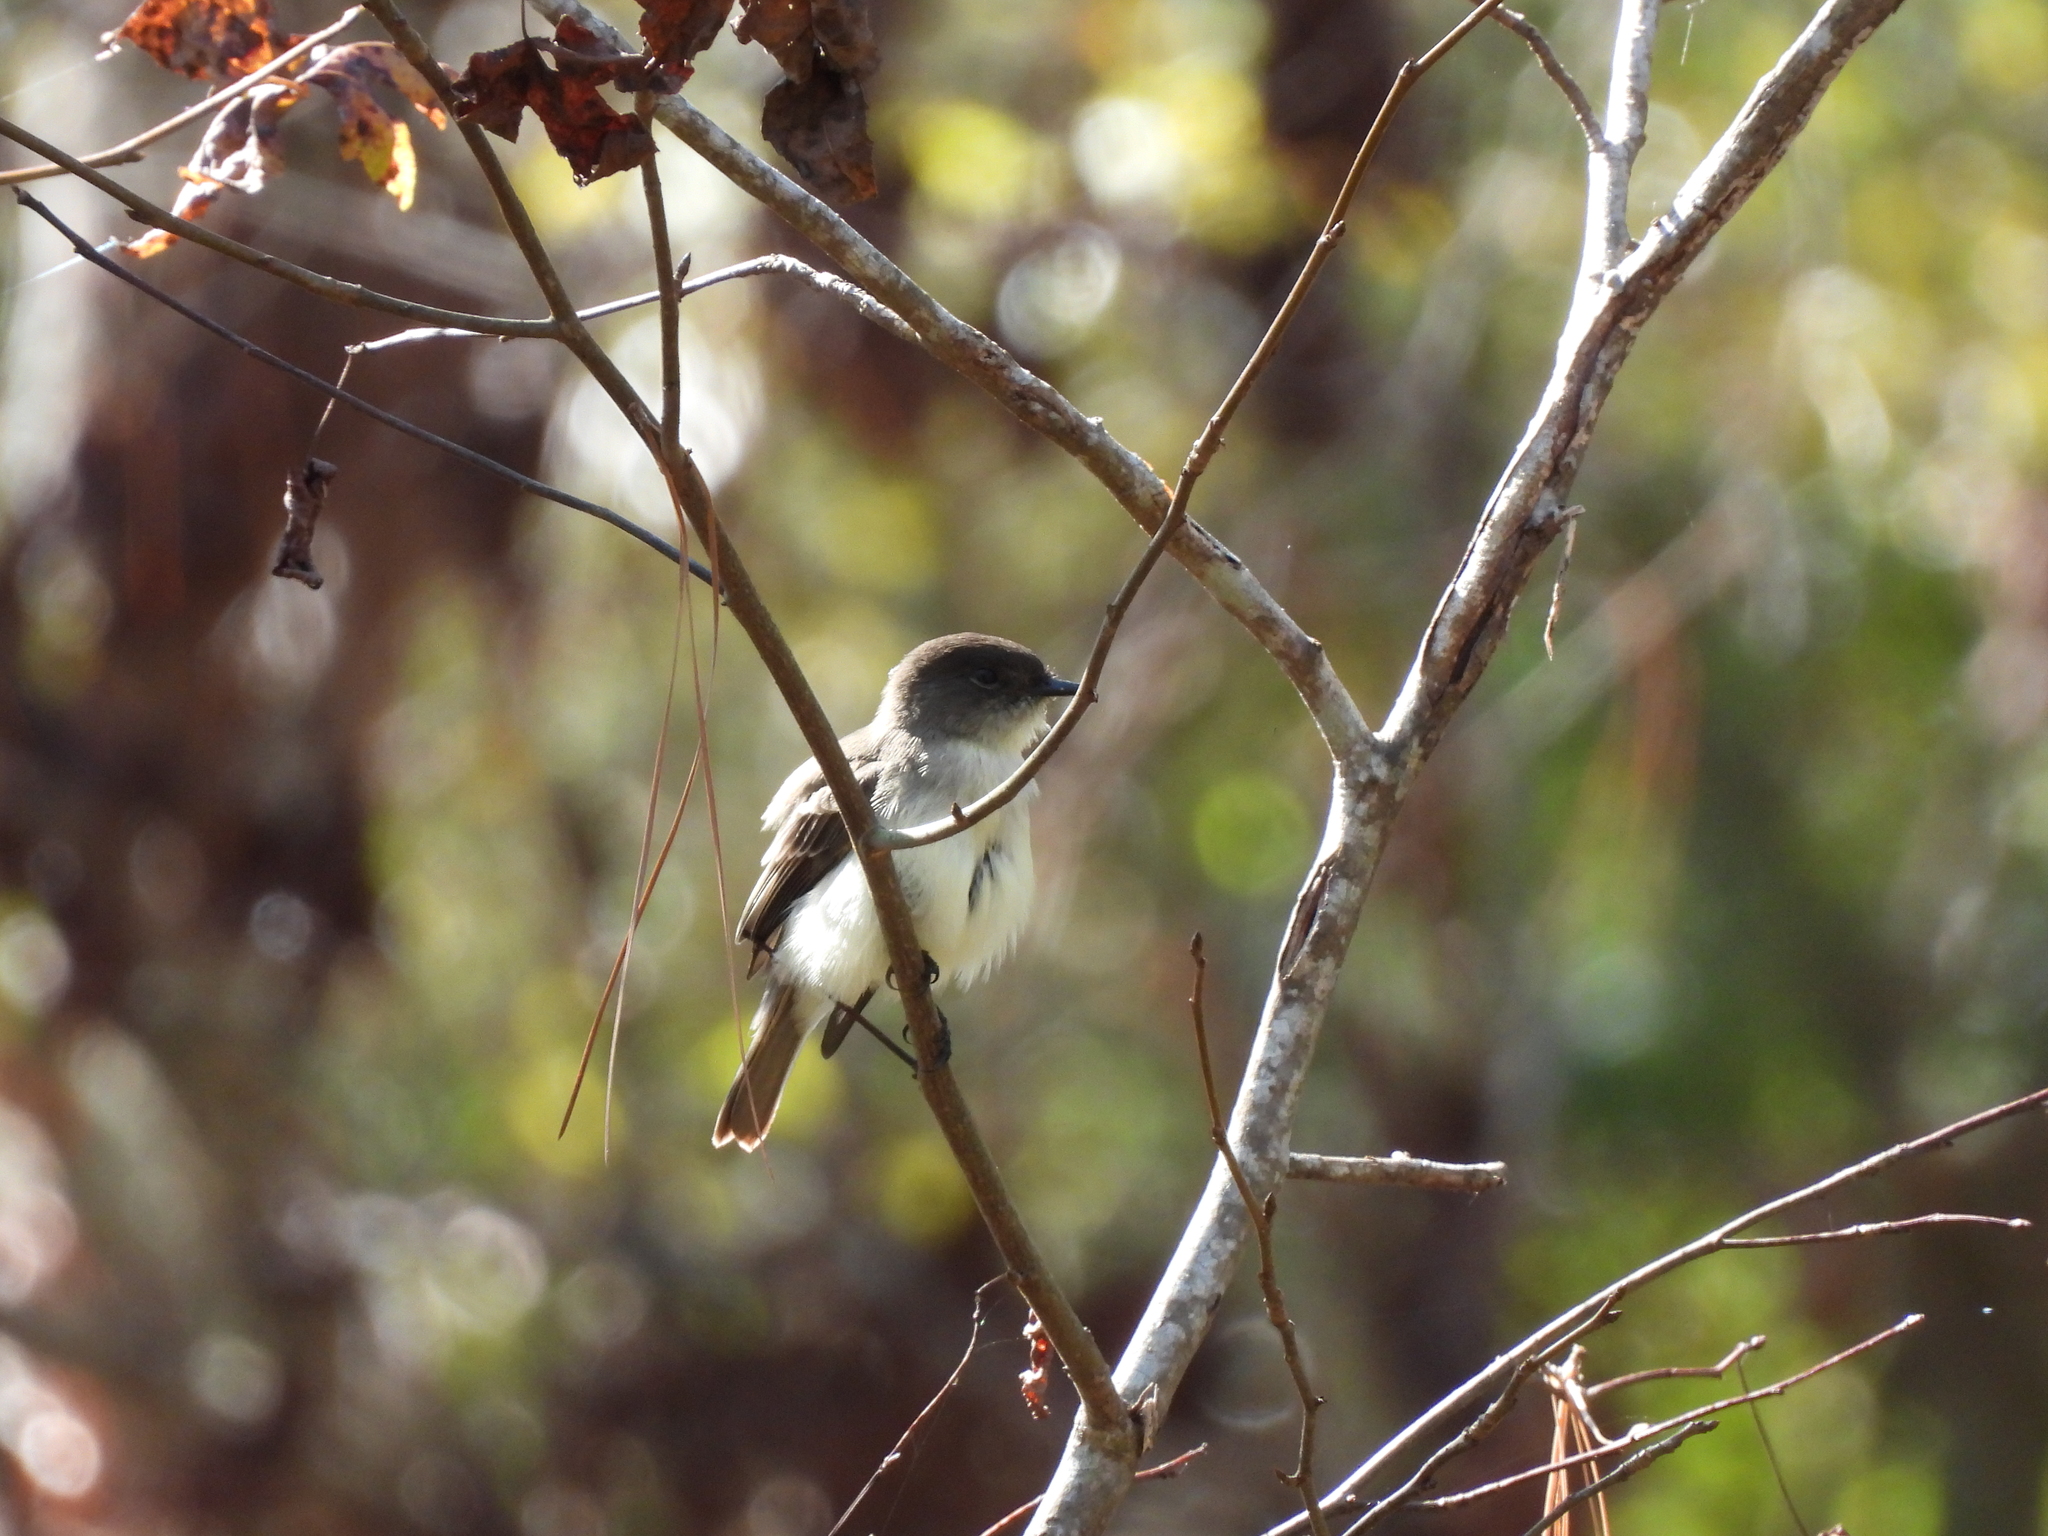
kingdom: Animalia
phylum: Chordata
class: Aves
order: Passeriformes
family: Tyrannidae
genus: Sayornis
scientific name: Sayornis phoebe
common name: Eastern phoebe
